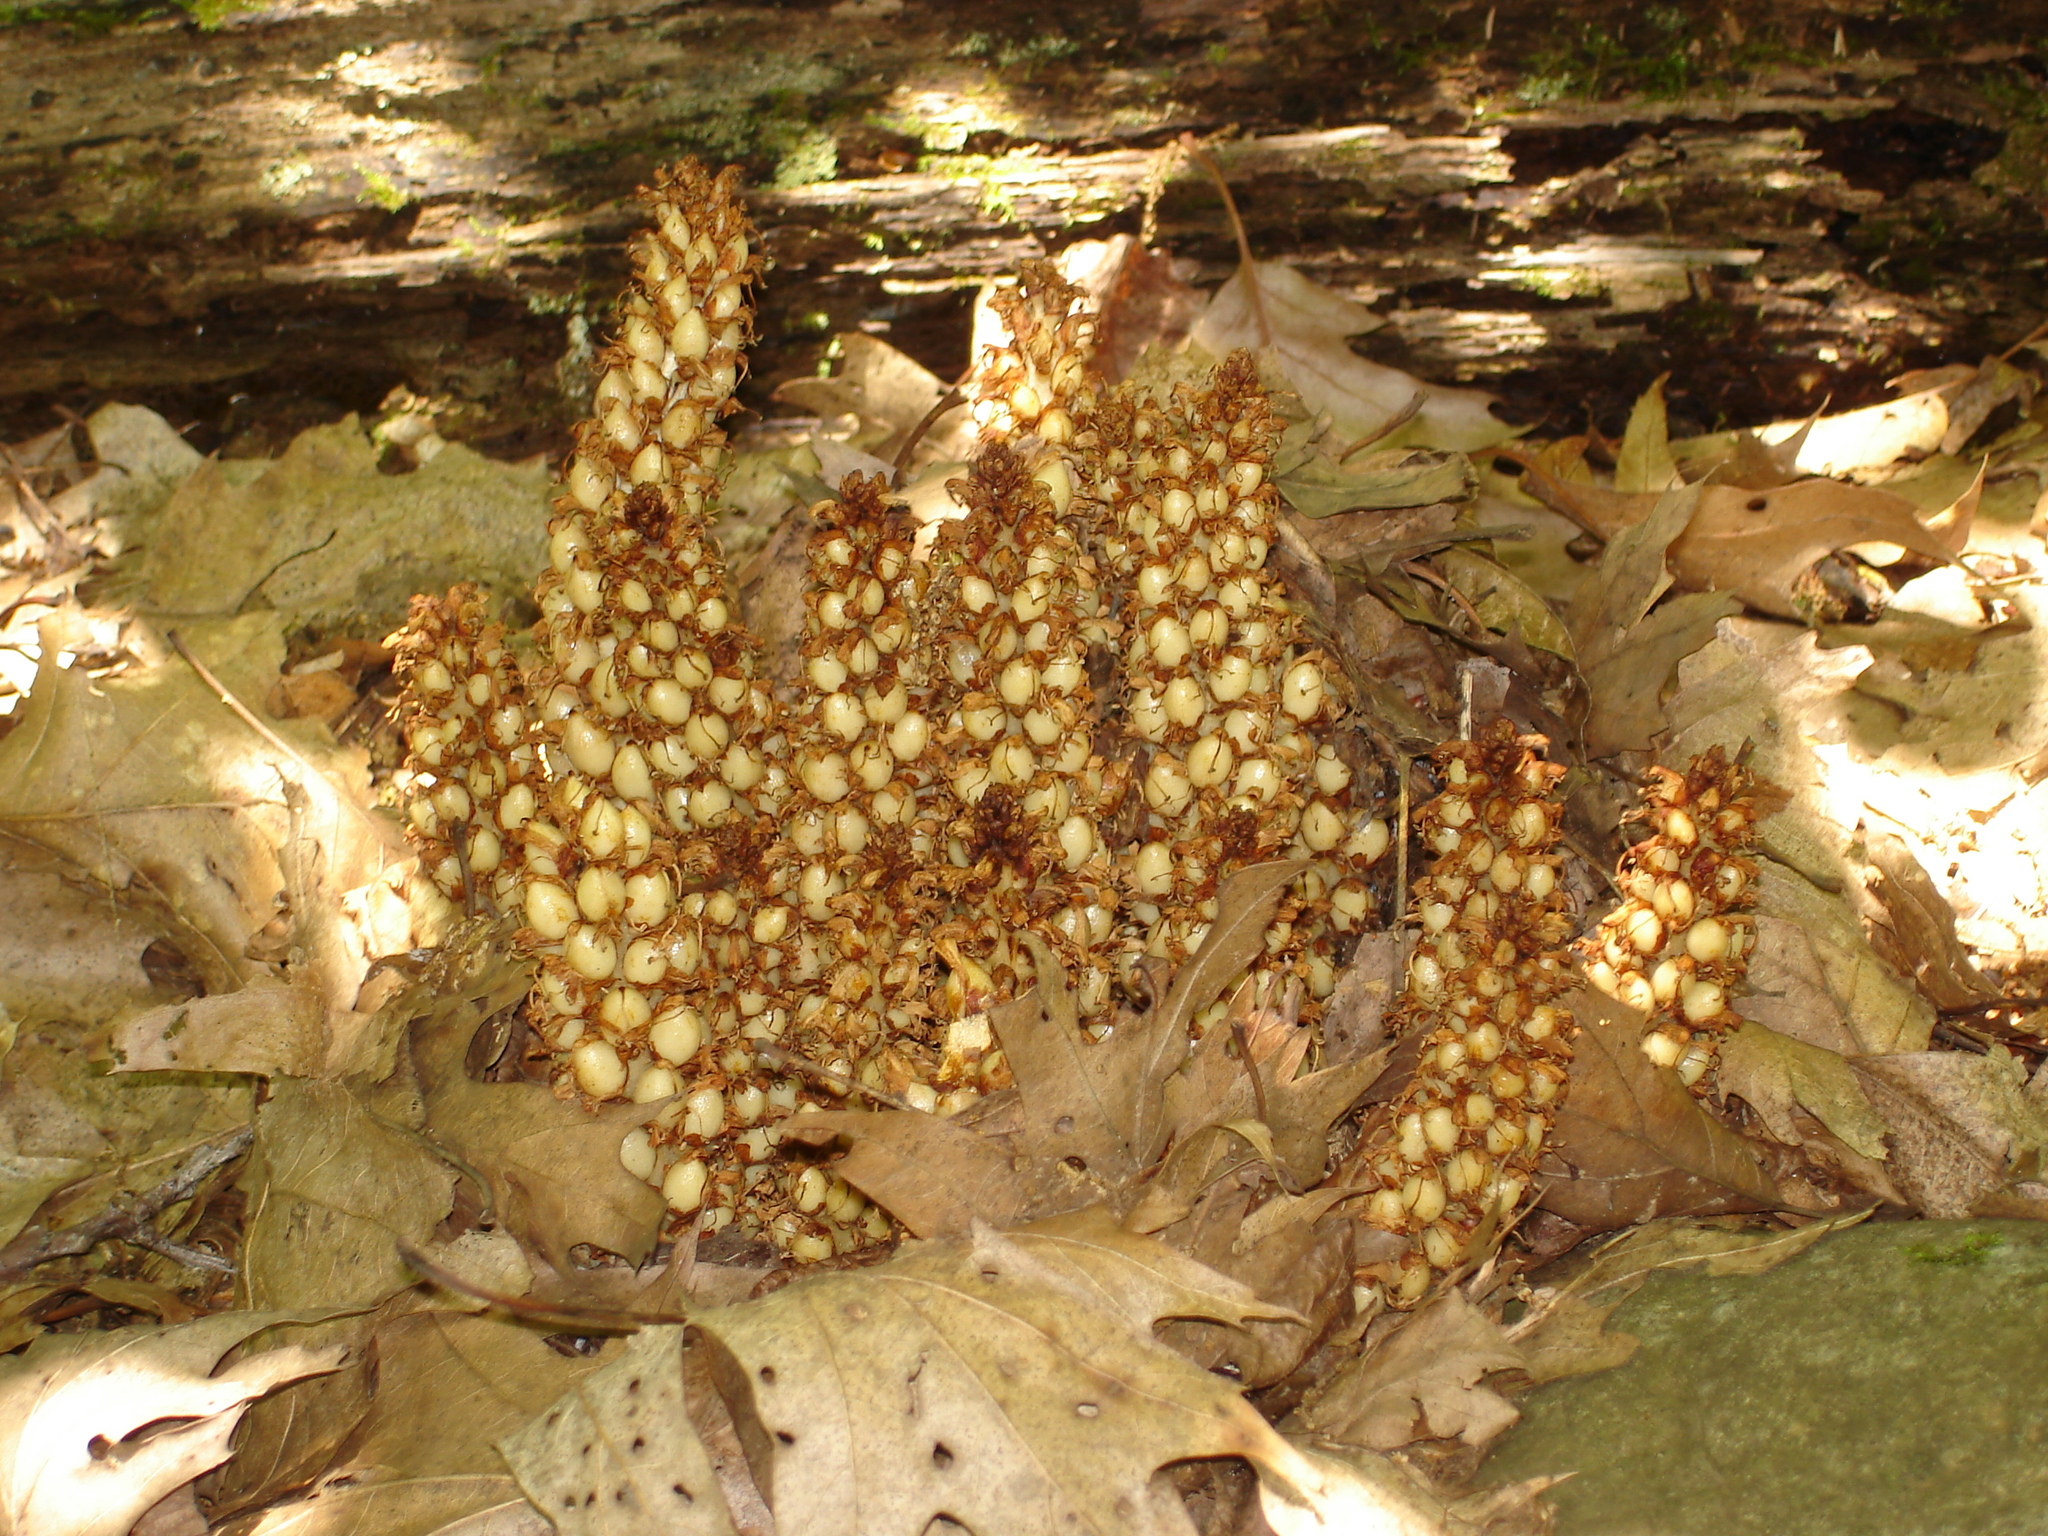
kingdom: Plantae
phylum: Tracheophyta
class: Magnoliopsida
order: Lamiales
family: Orobanchaceae
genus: Conopholis
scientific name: Conopholis americana
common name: American cancer-root
